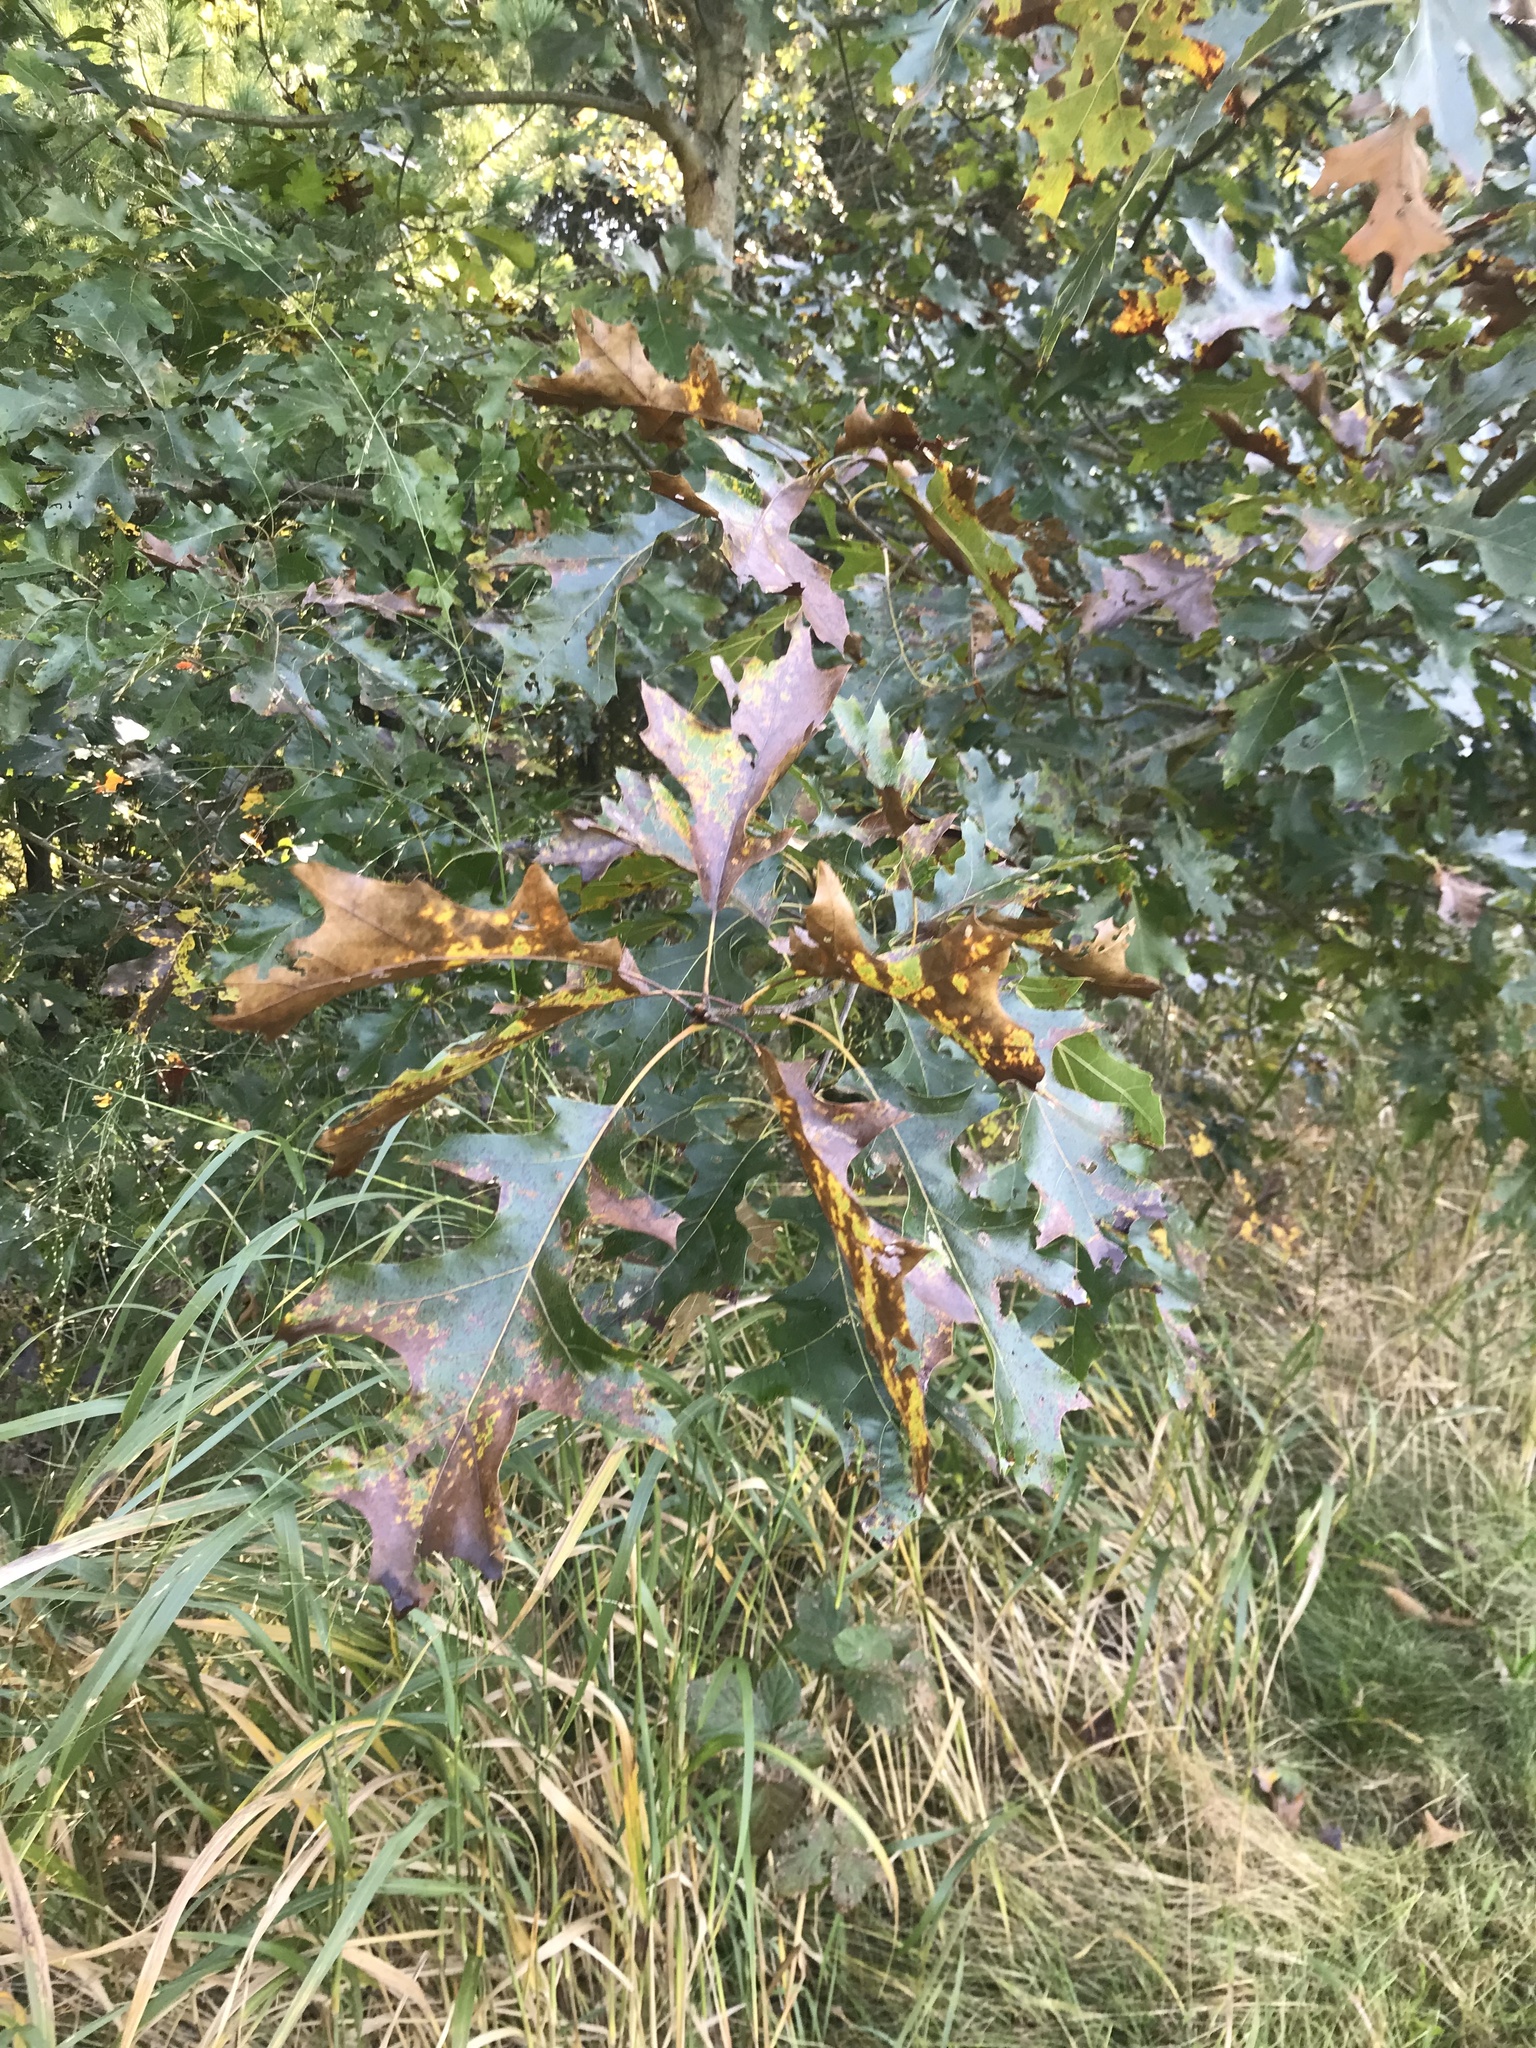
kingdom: Plantae
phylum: Tracheophyta
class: Magnoliopsida
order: Fagales
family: Fagaceae
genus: Quercus
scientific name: Quercus rubra
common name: Red oak
